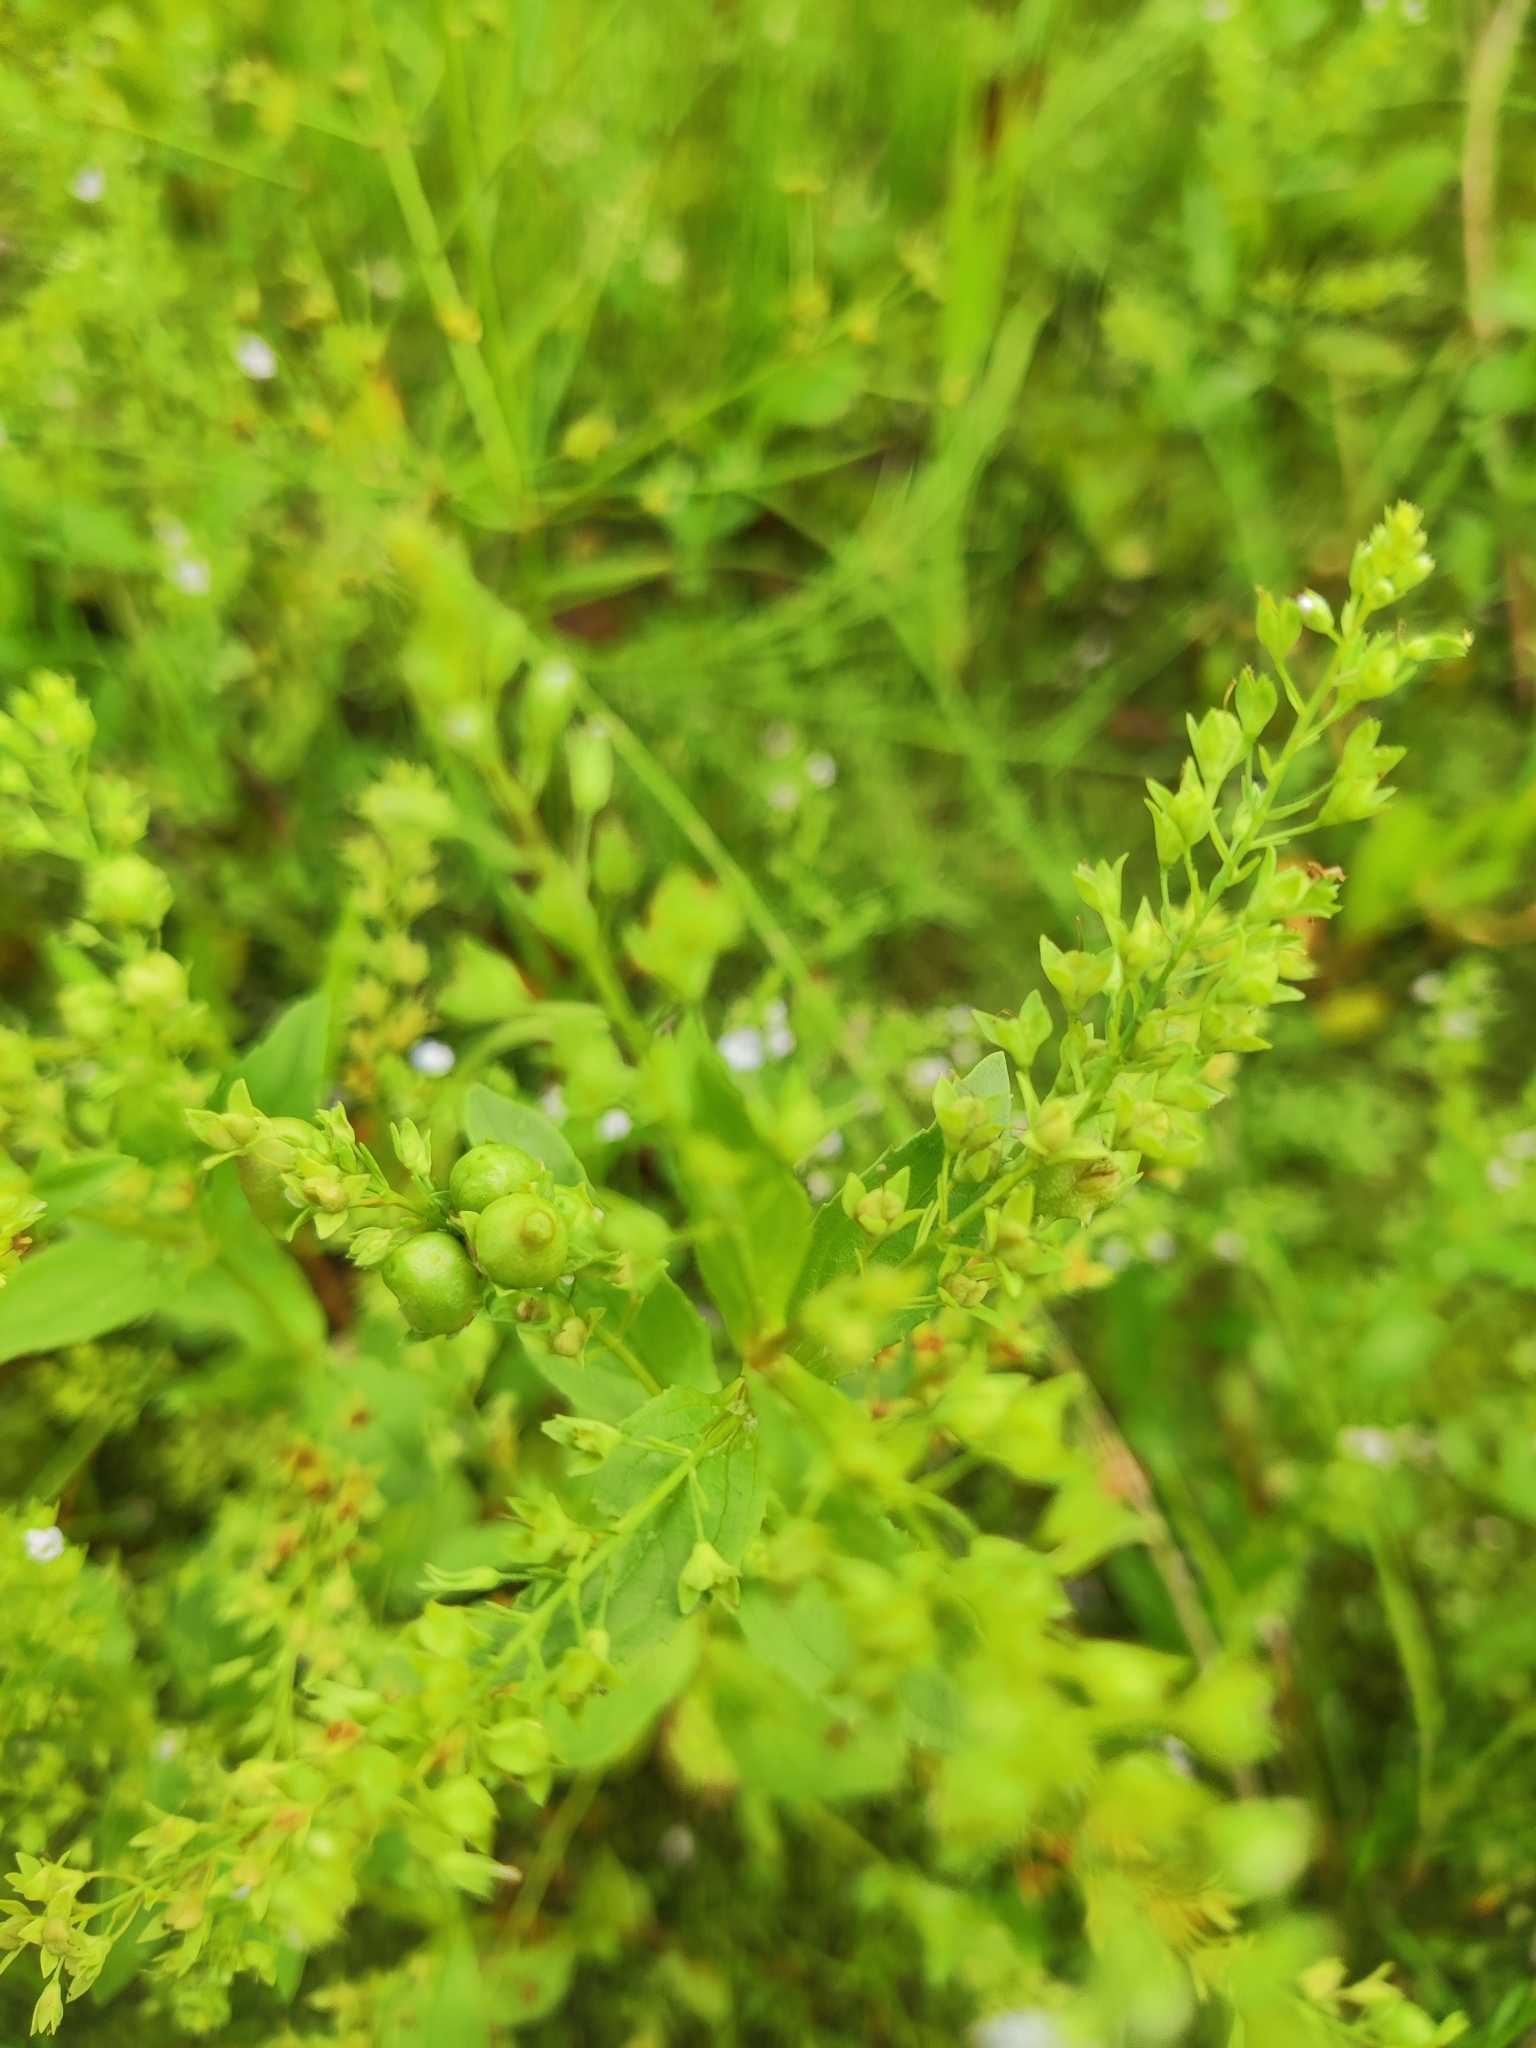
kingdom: Plantae
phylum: Tracheophyta
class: Magnoliopsida
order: Lamiales
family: Plantaginaceae
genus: Veronica
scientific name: Veronica anagallis-aquatica
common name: Water speedwell
